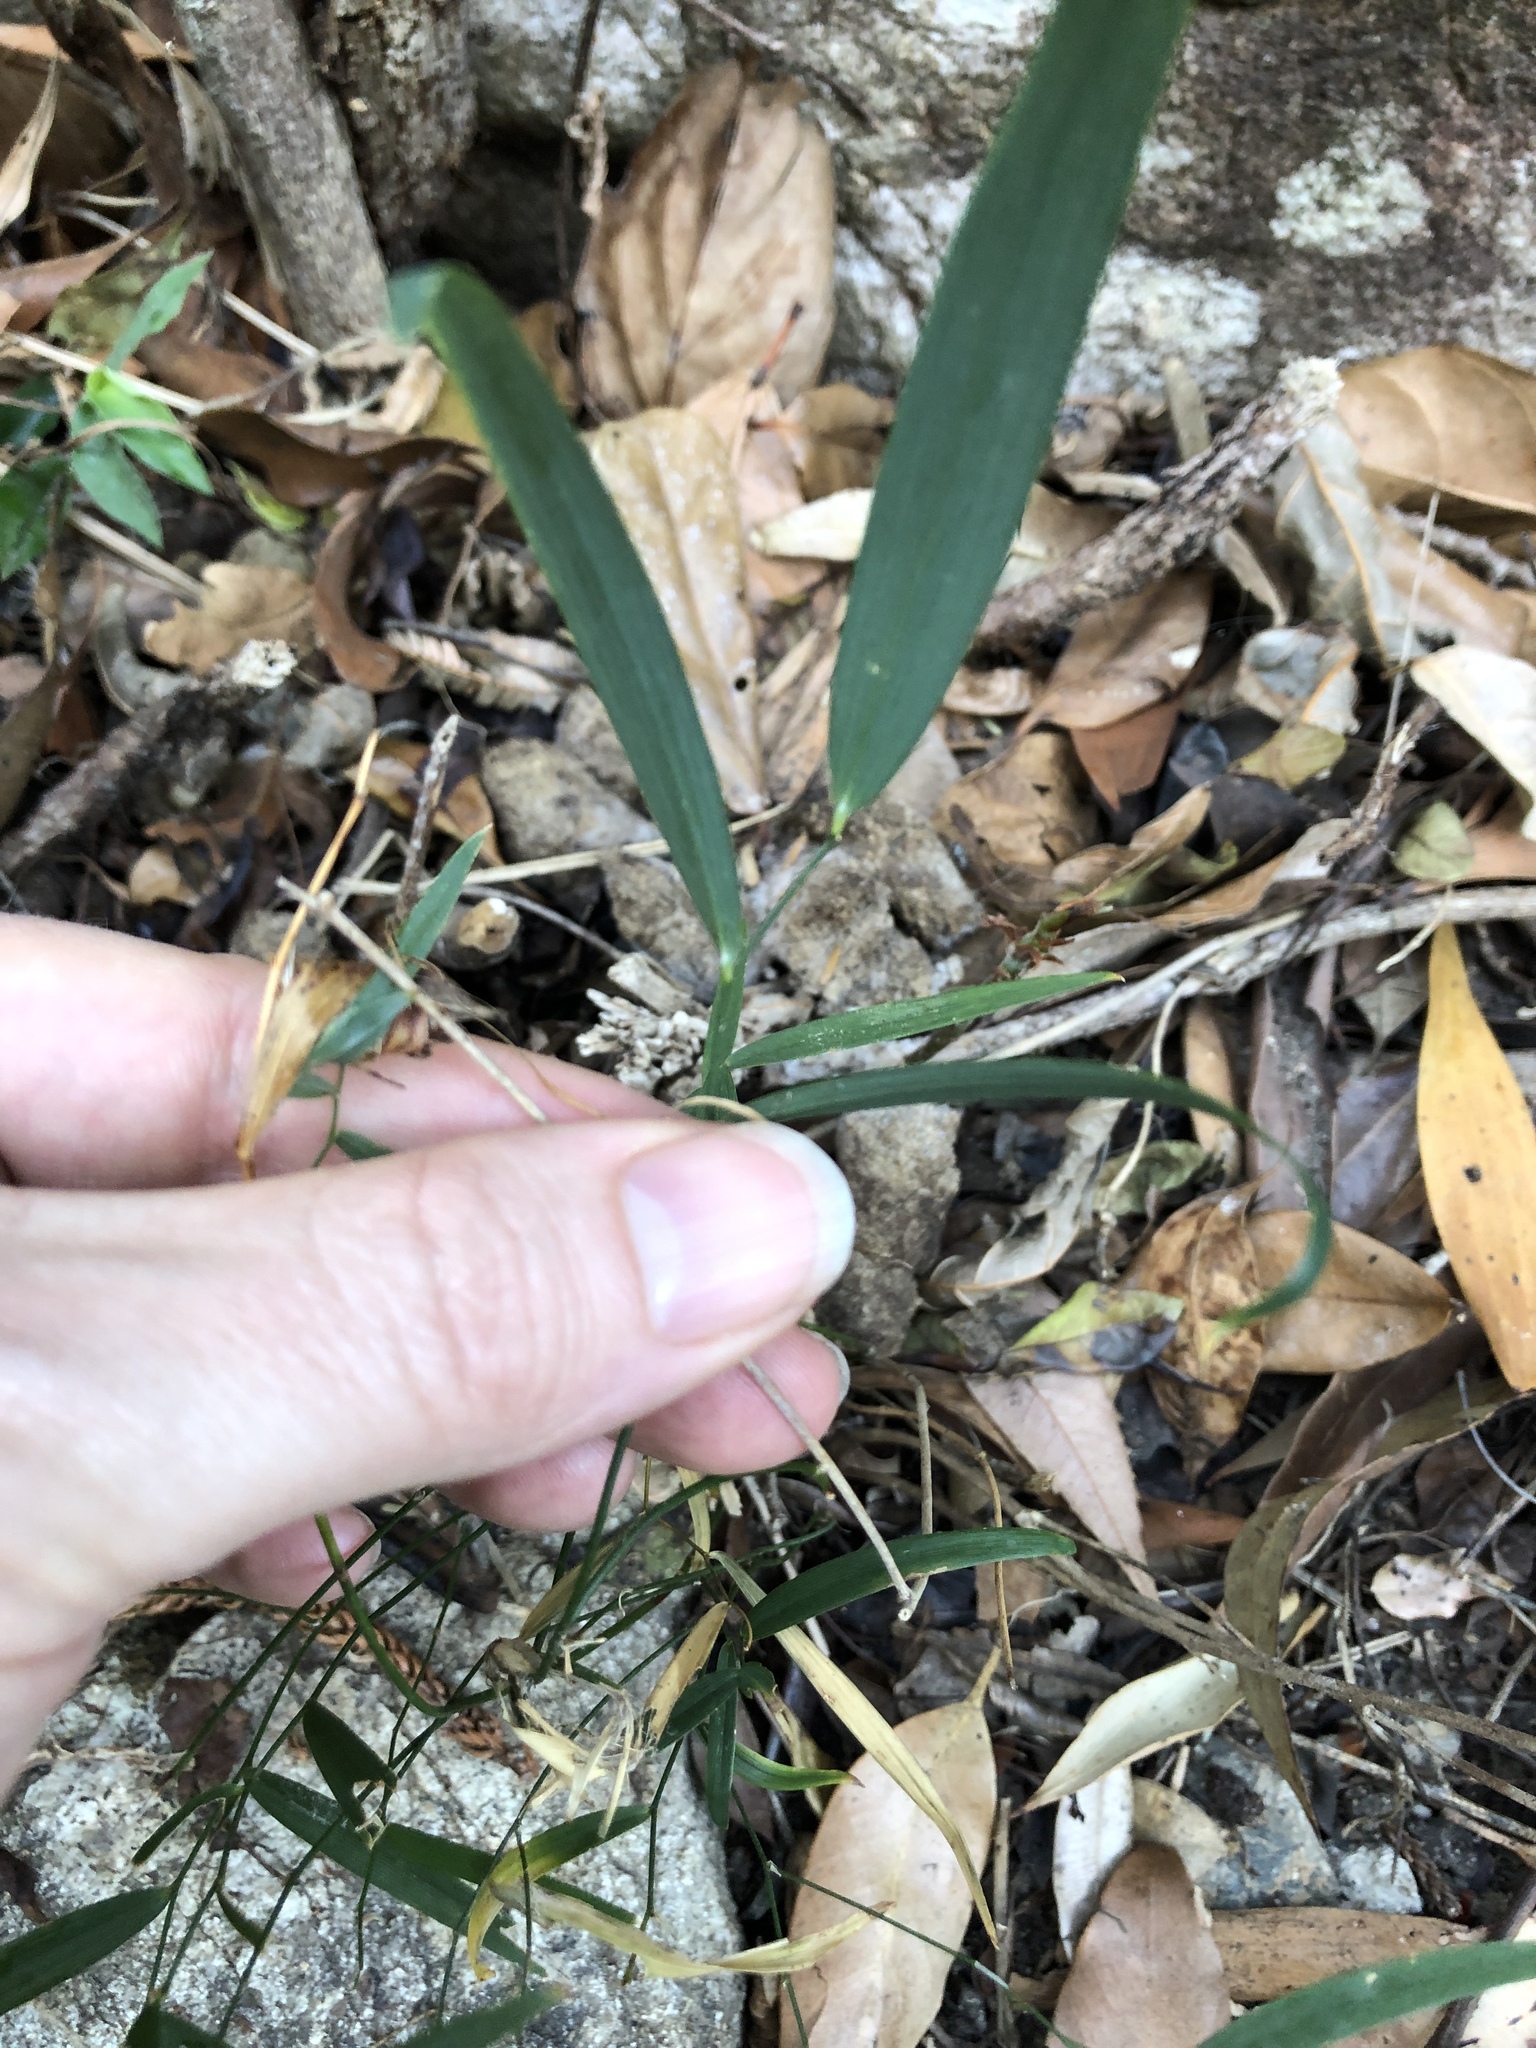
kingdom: Plantae
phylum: Tracheophyta
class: Liliopsida
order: Asparagales
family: Asparagaceae
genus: Eustrephus
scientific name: Eustrephus latifolius
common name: Orangevine
